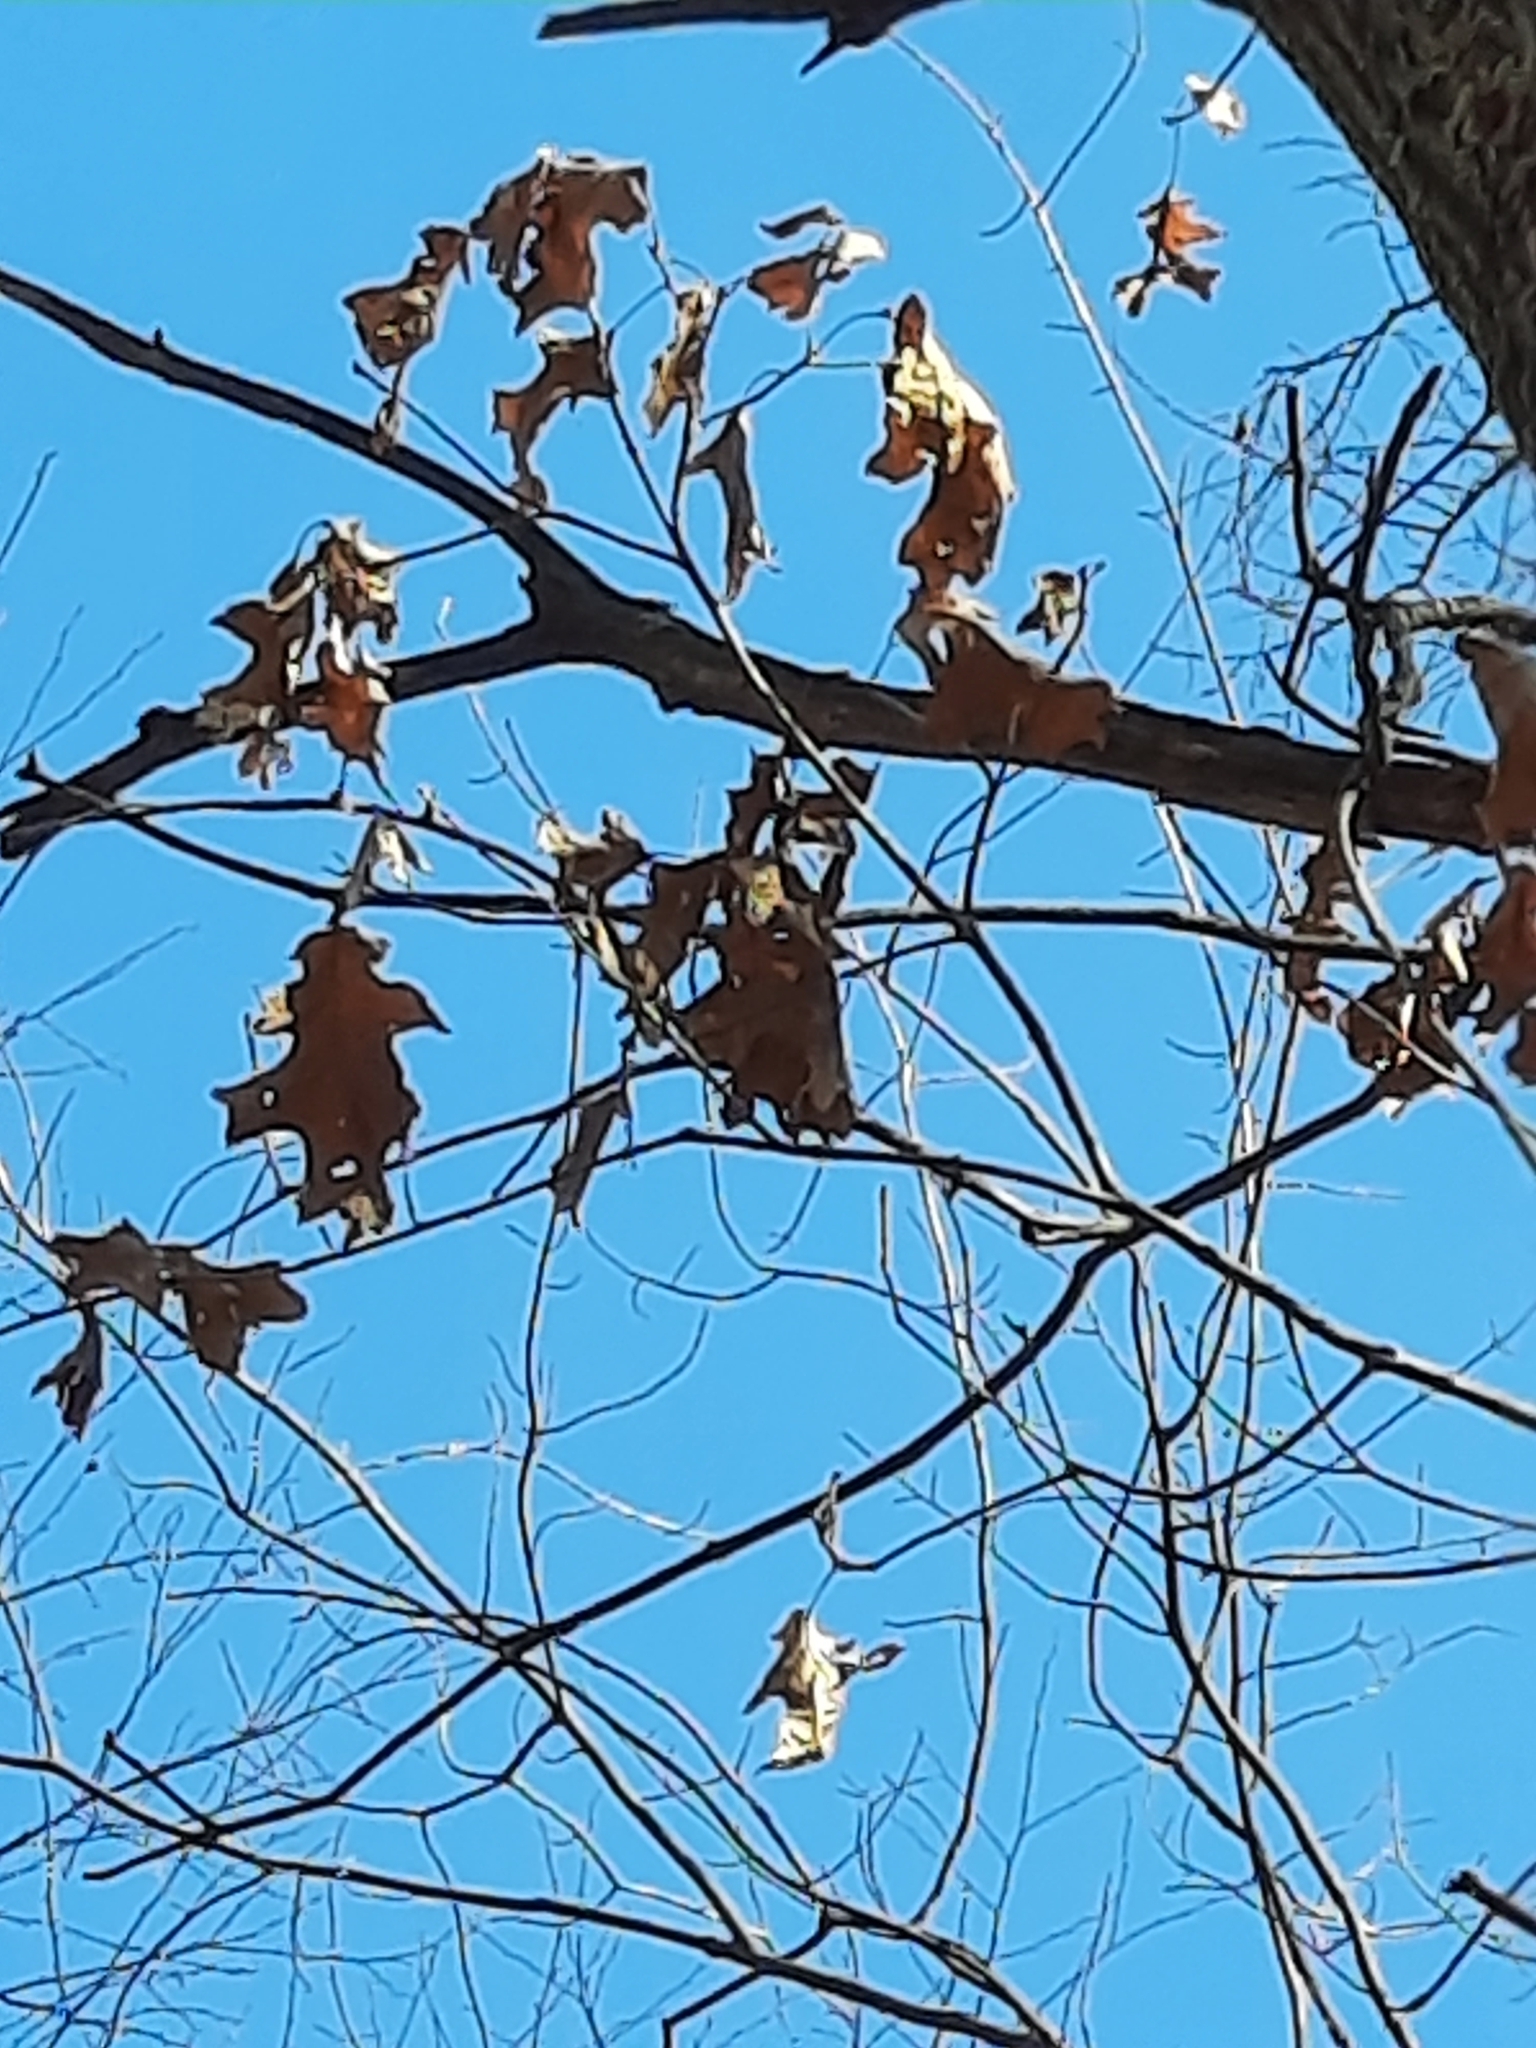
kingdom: Plantae
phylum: Tracheophyta
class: Magnoliopsida
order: Fagales
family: Fagaceae
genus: Quercus
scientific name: Quercus rubra
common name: Red oak
